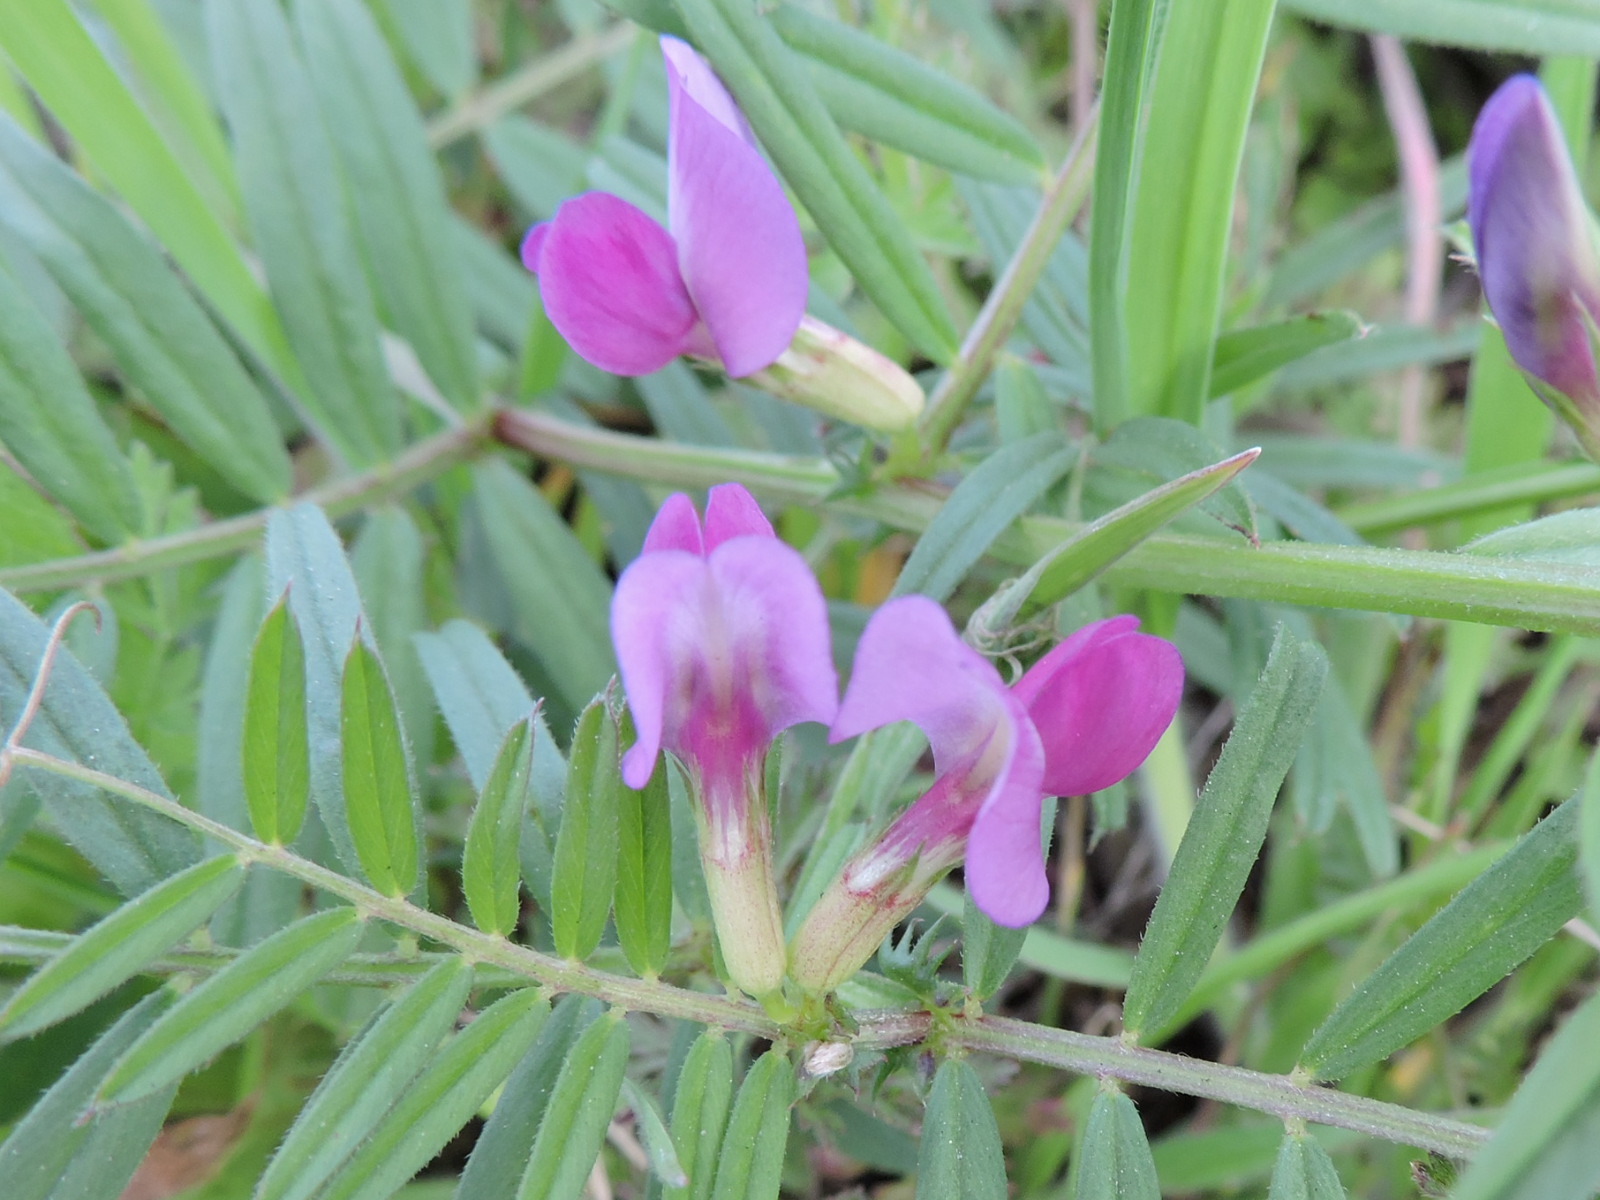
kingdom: Plantae
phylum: Tracheophyta
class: Magnoliopsida
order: Fabales
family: Fabaceae
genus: Vicia
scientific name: Vicia sativa
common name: Garden vetch
